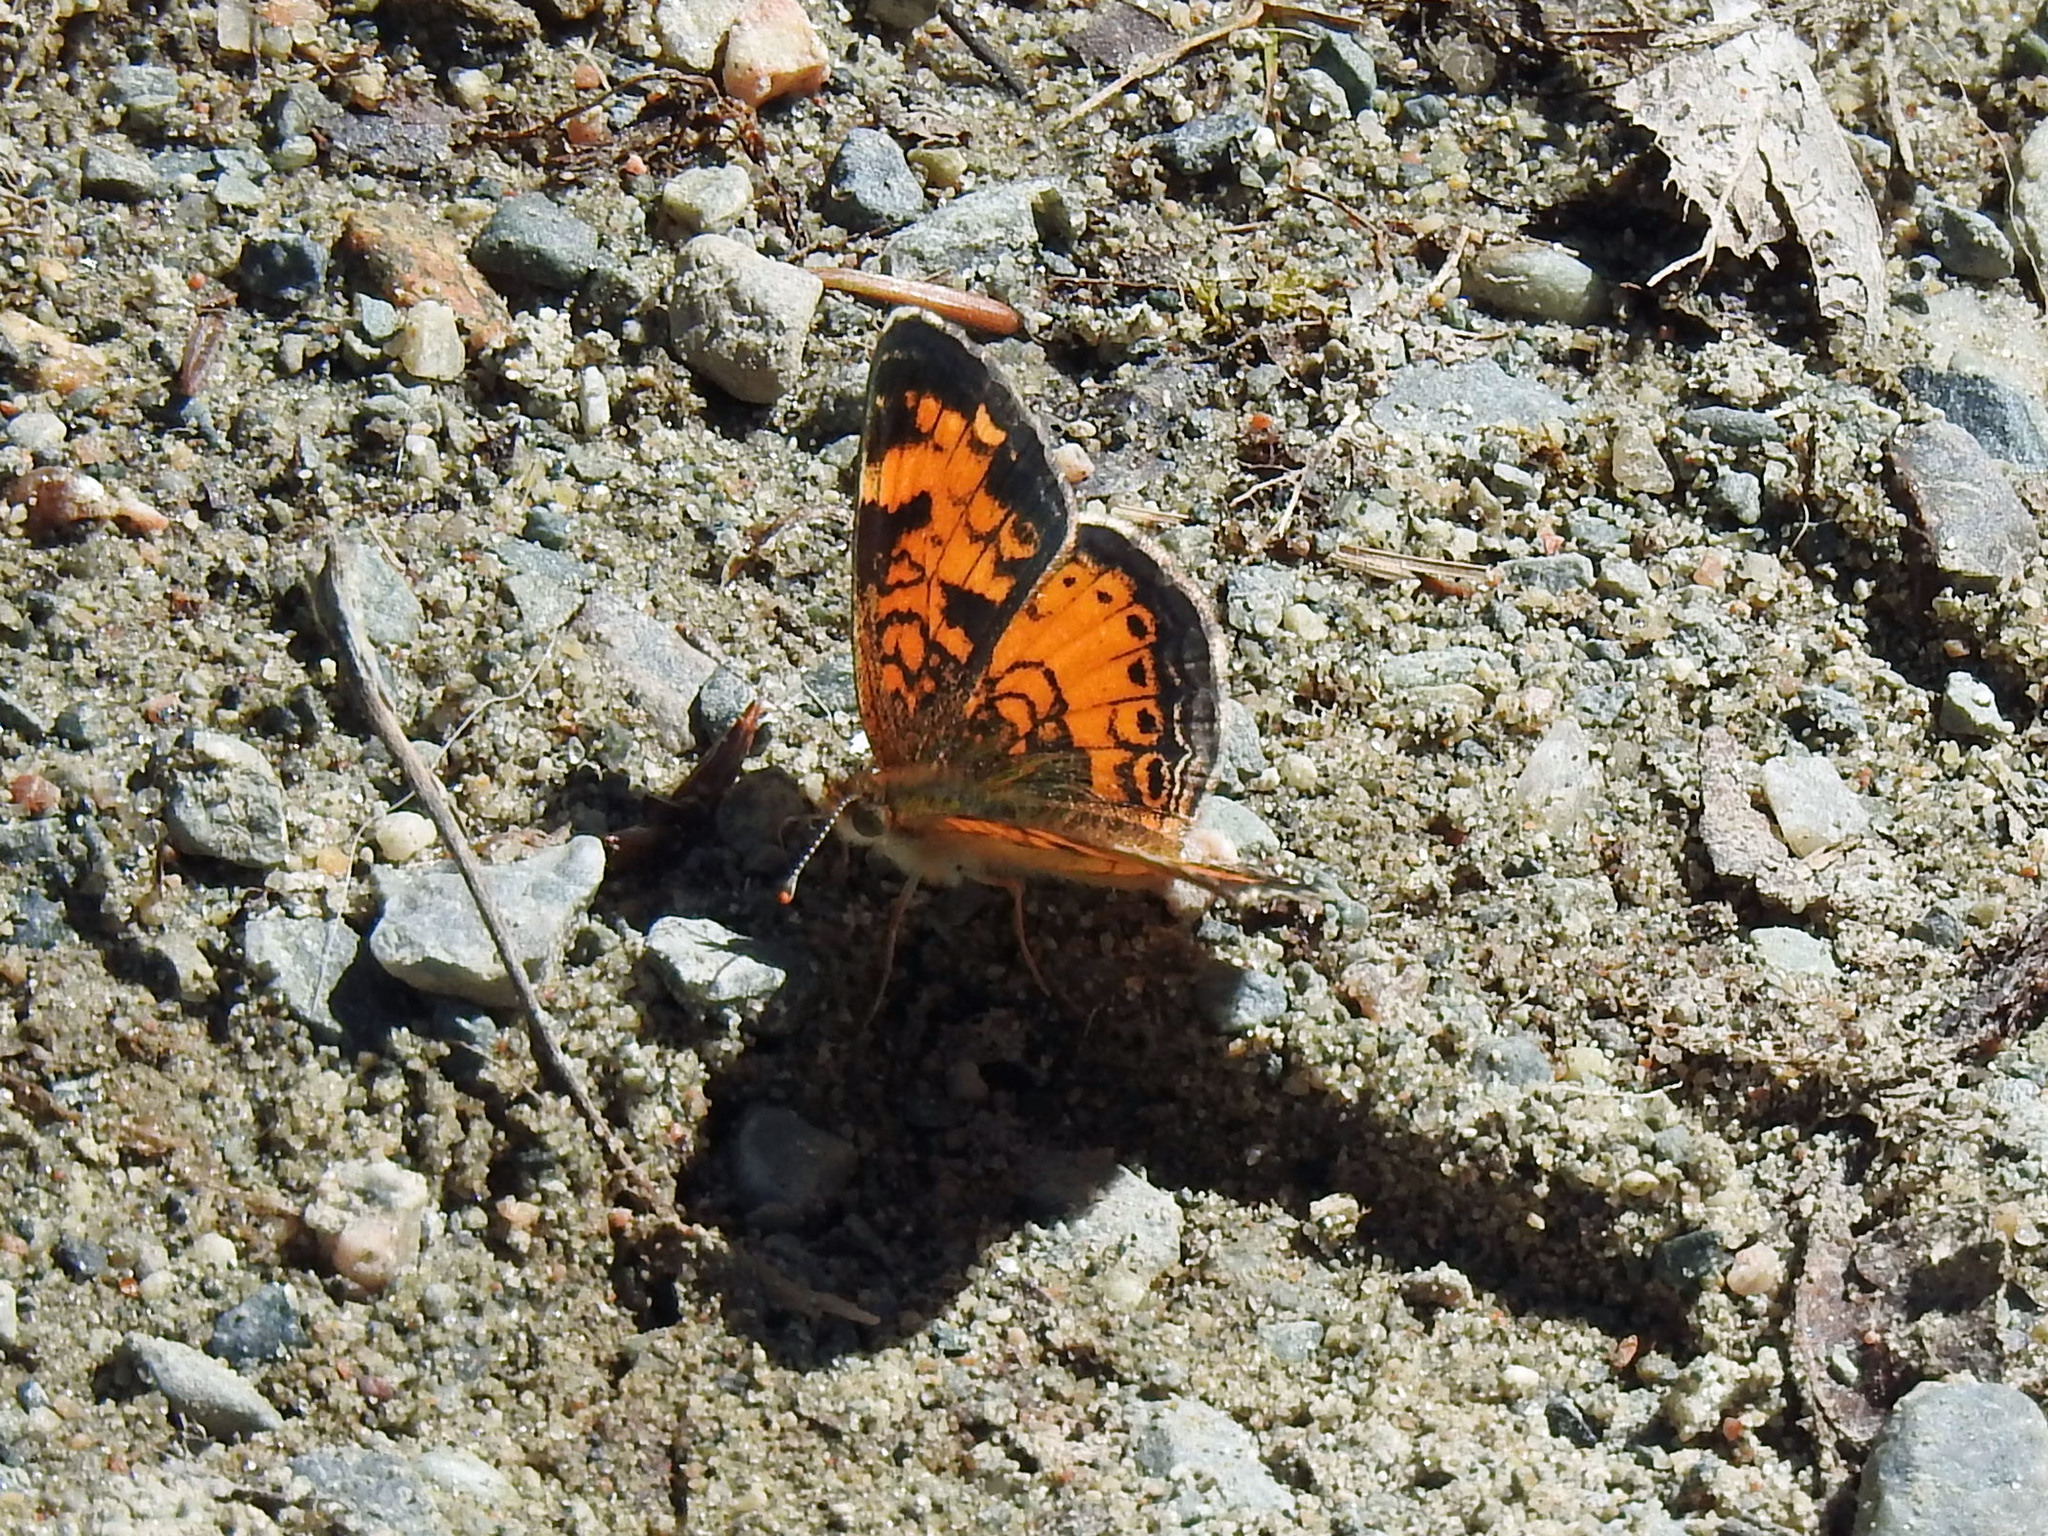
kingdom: Animalia
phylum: Arthropoda
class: Insecta
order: Lepidoptera
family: Nymphalidae
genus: Phyciodes
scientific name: Phyciodes tharos
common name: Pearl crescent
